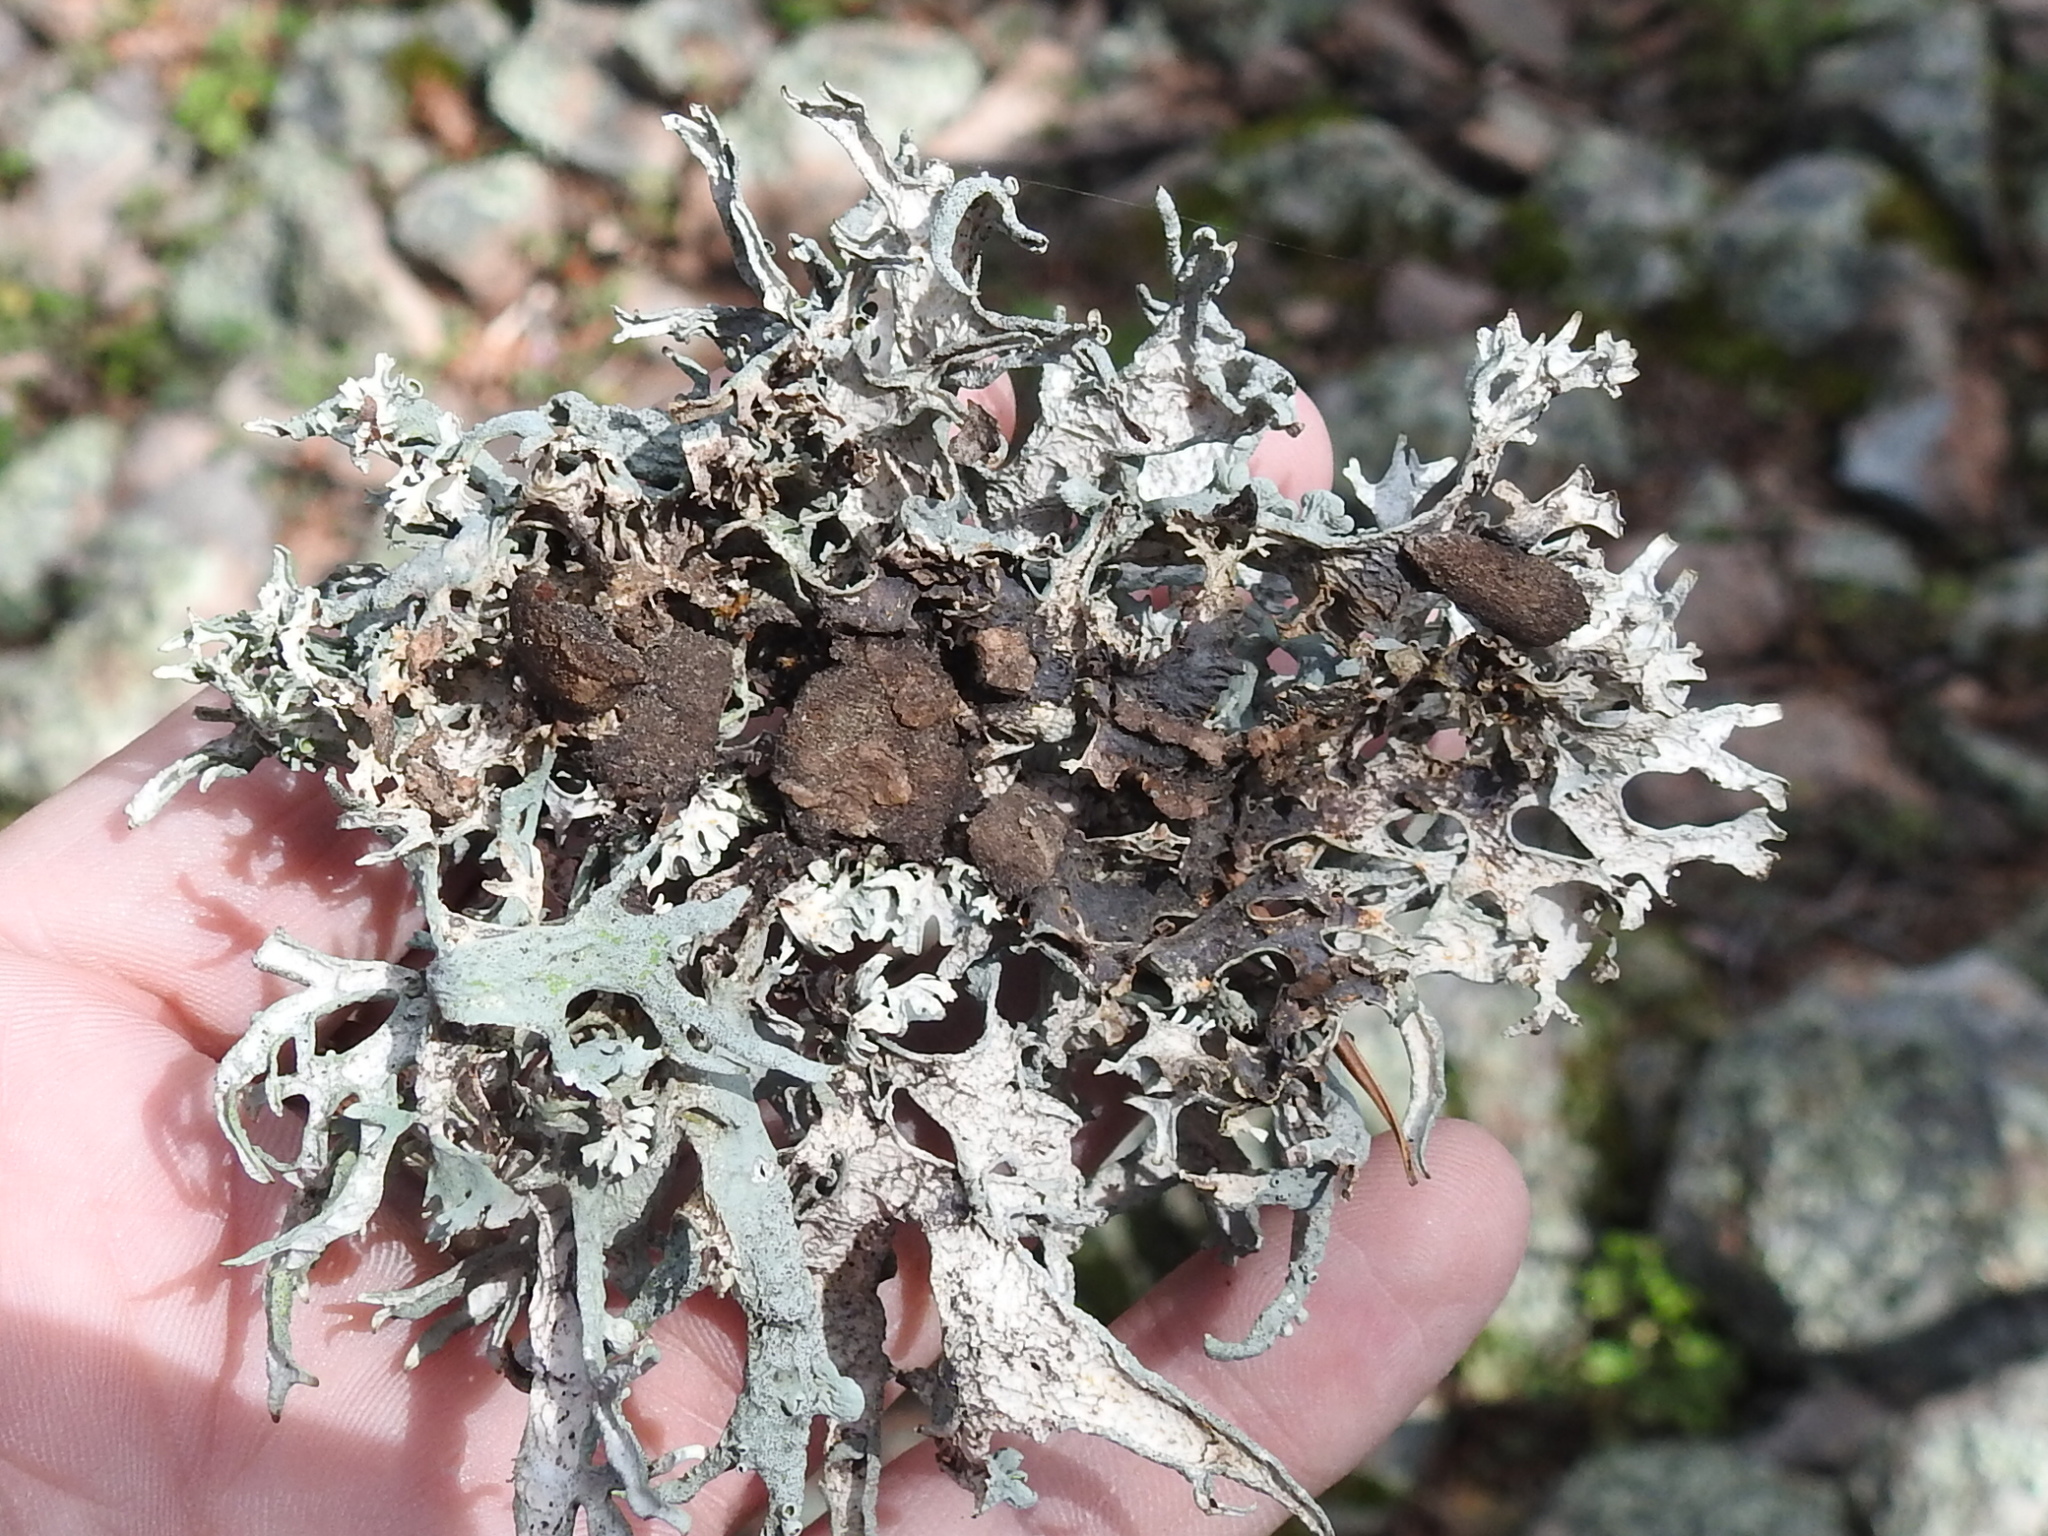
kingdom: Fungi
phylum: Ascomycota
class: Lecanoromycetes
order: Lecanorales
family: Parmeliaceae
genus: Pseudevernia
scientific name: Pseudevernia intensa
